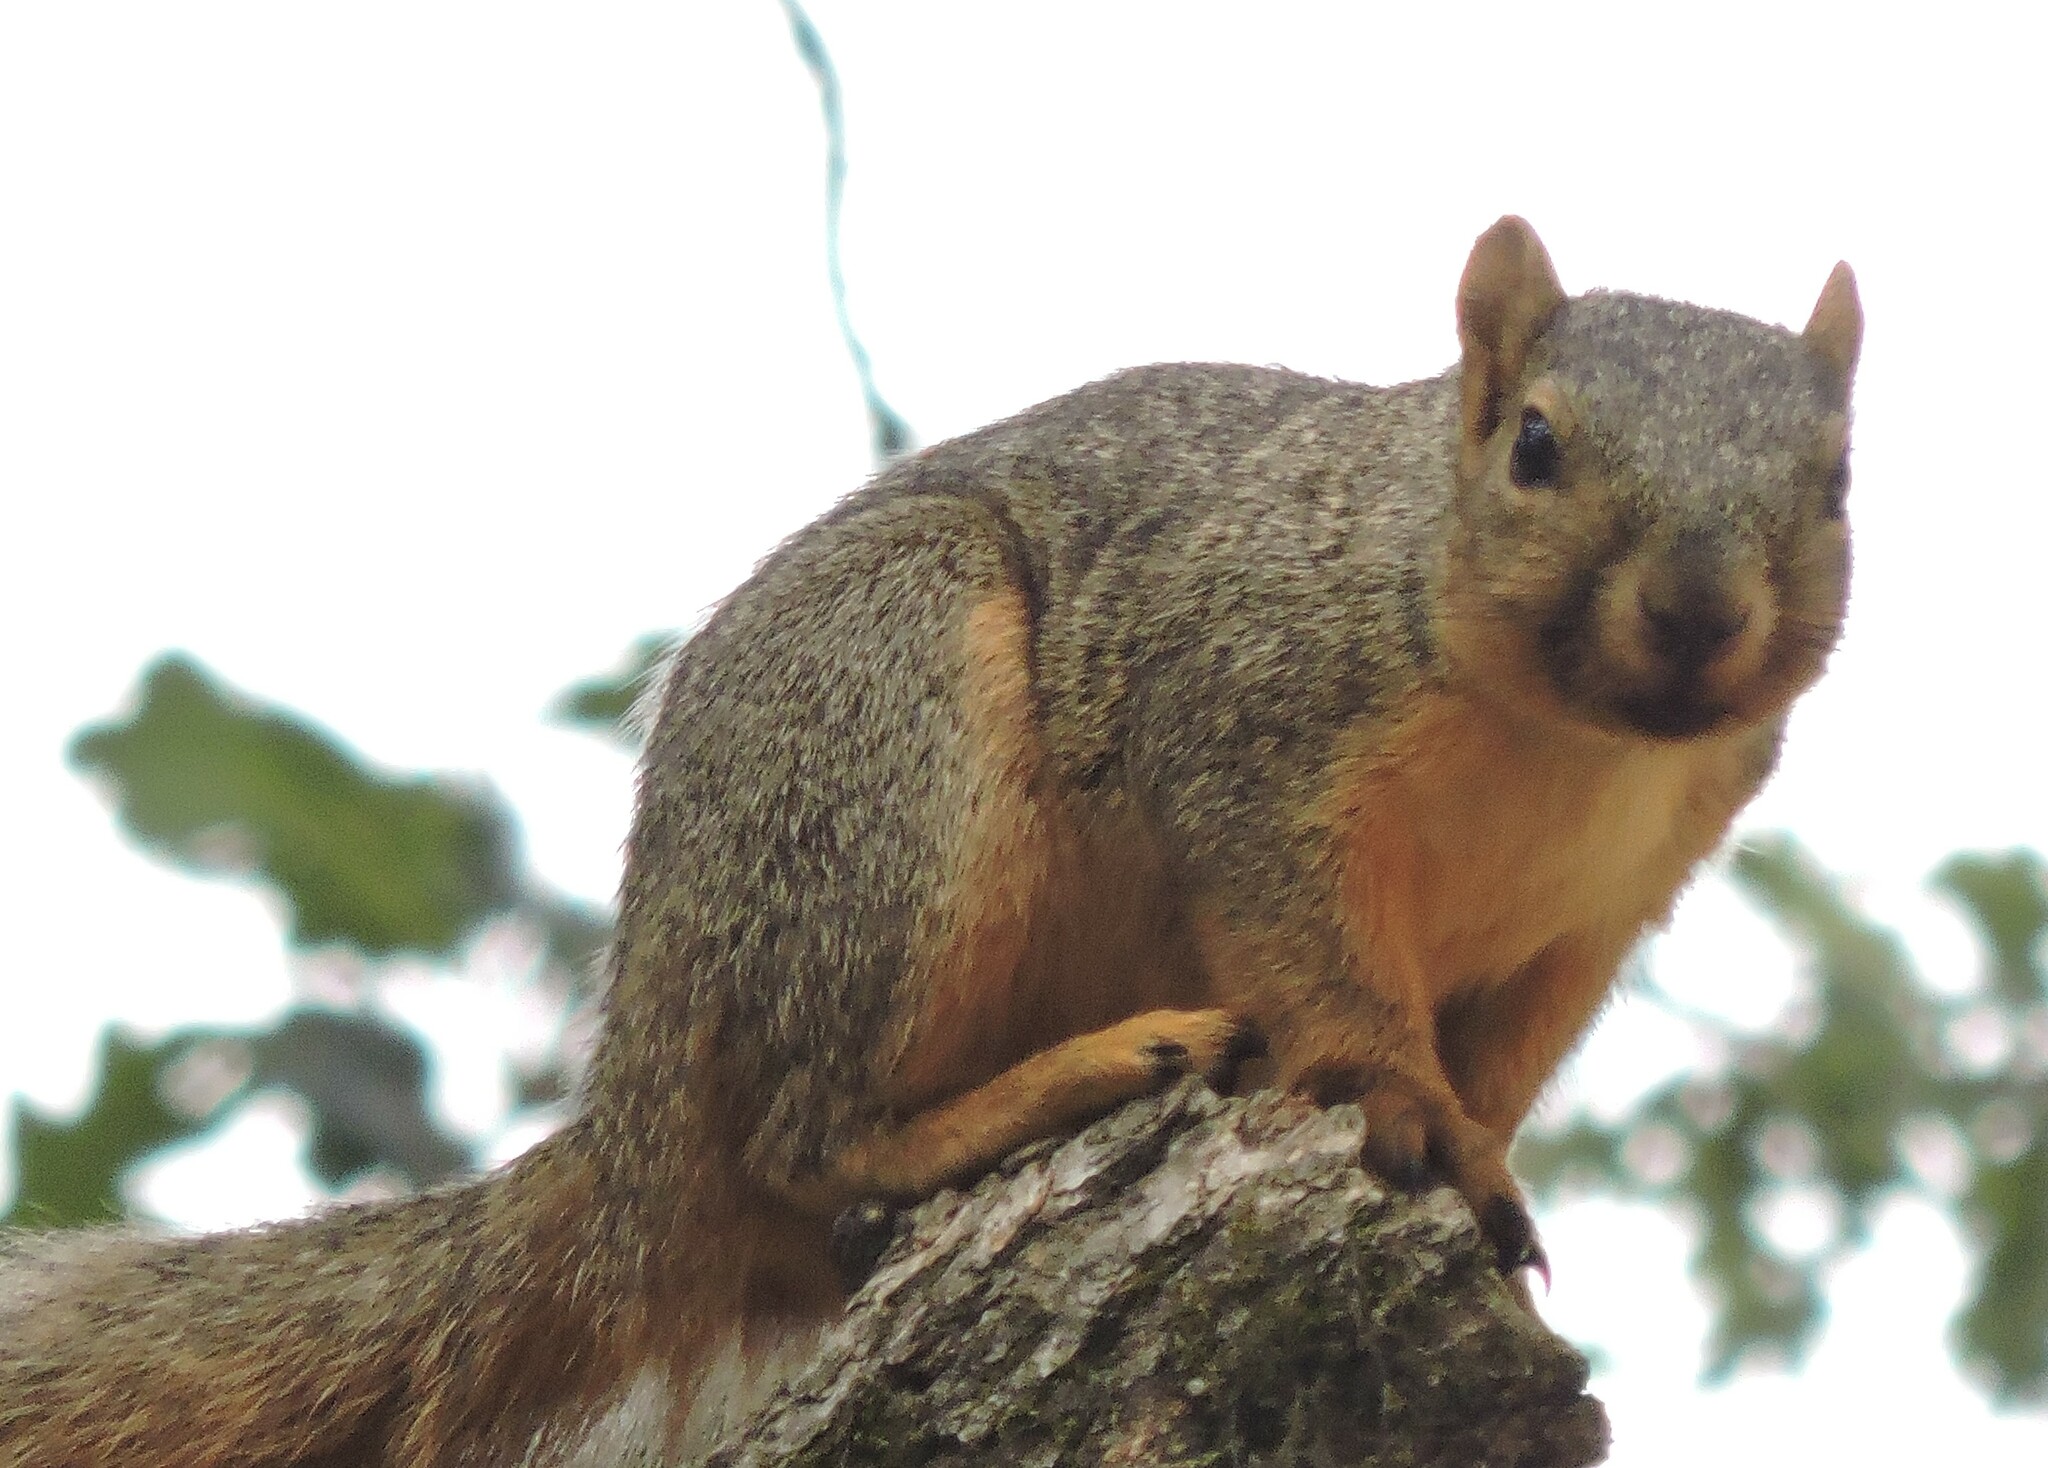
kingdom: Animalia
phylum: Chordata
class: Mammalia
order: Rodentia
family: Sciuridae
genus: Sciurus
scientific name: Sciurus niger
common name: Fox squirrel
